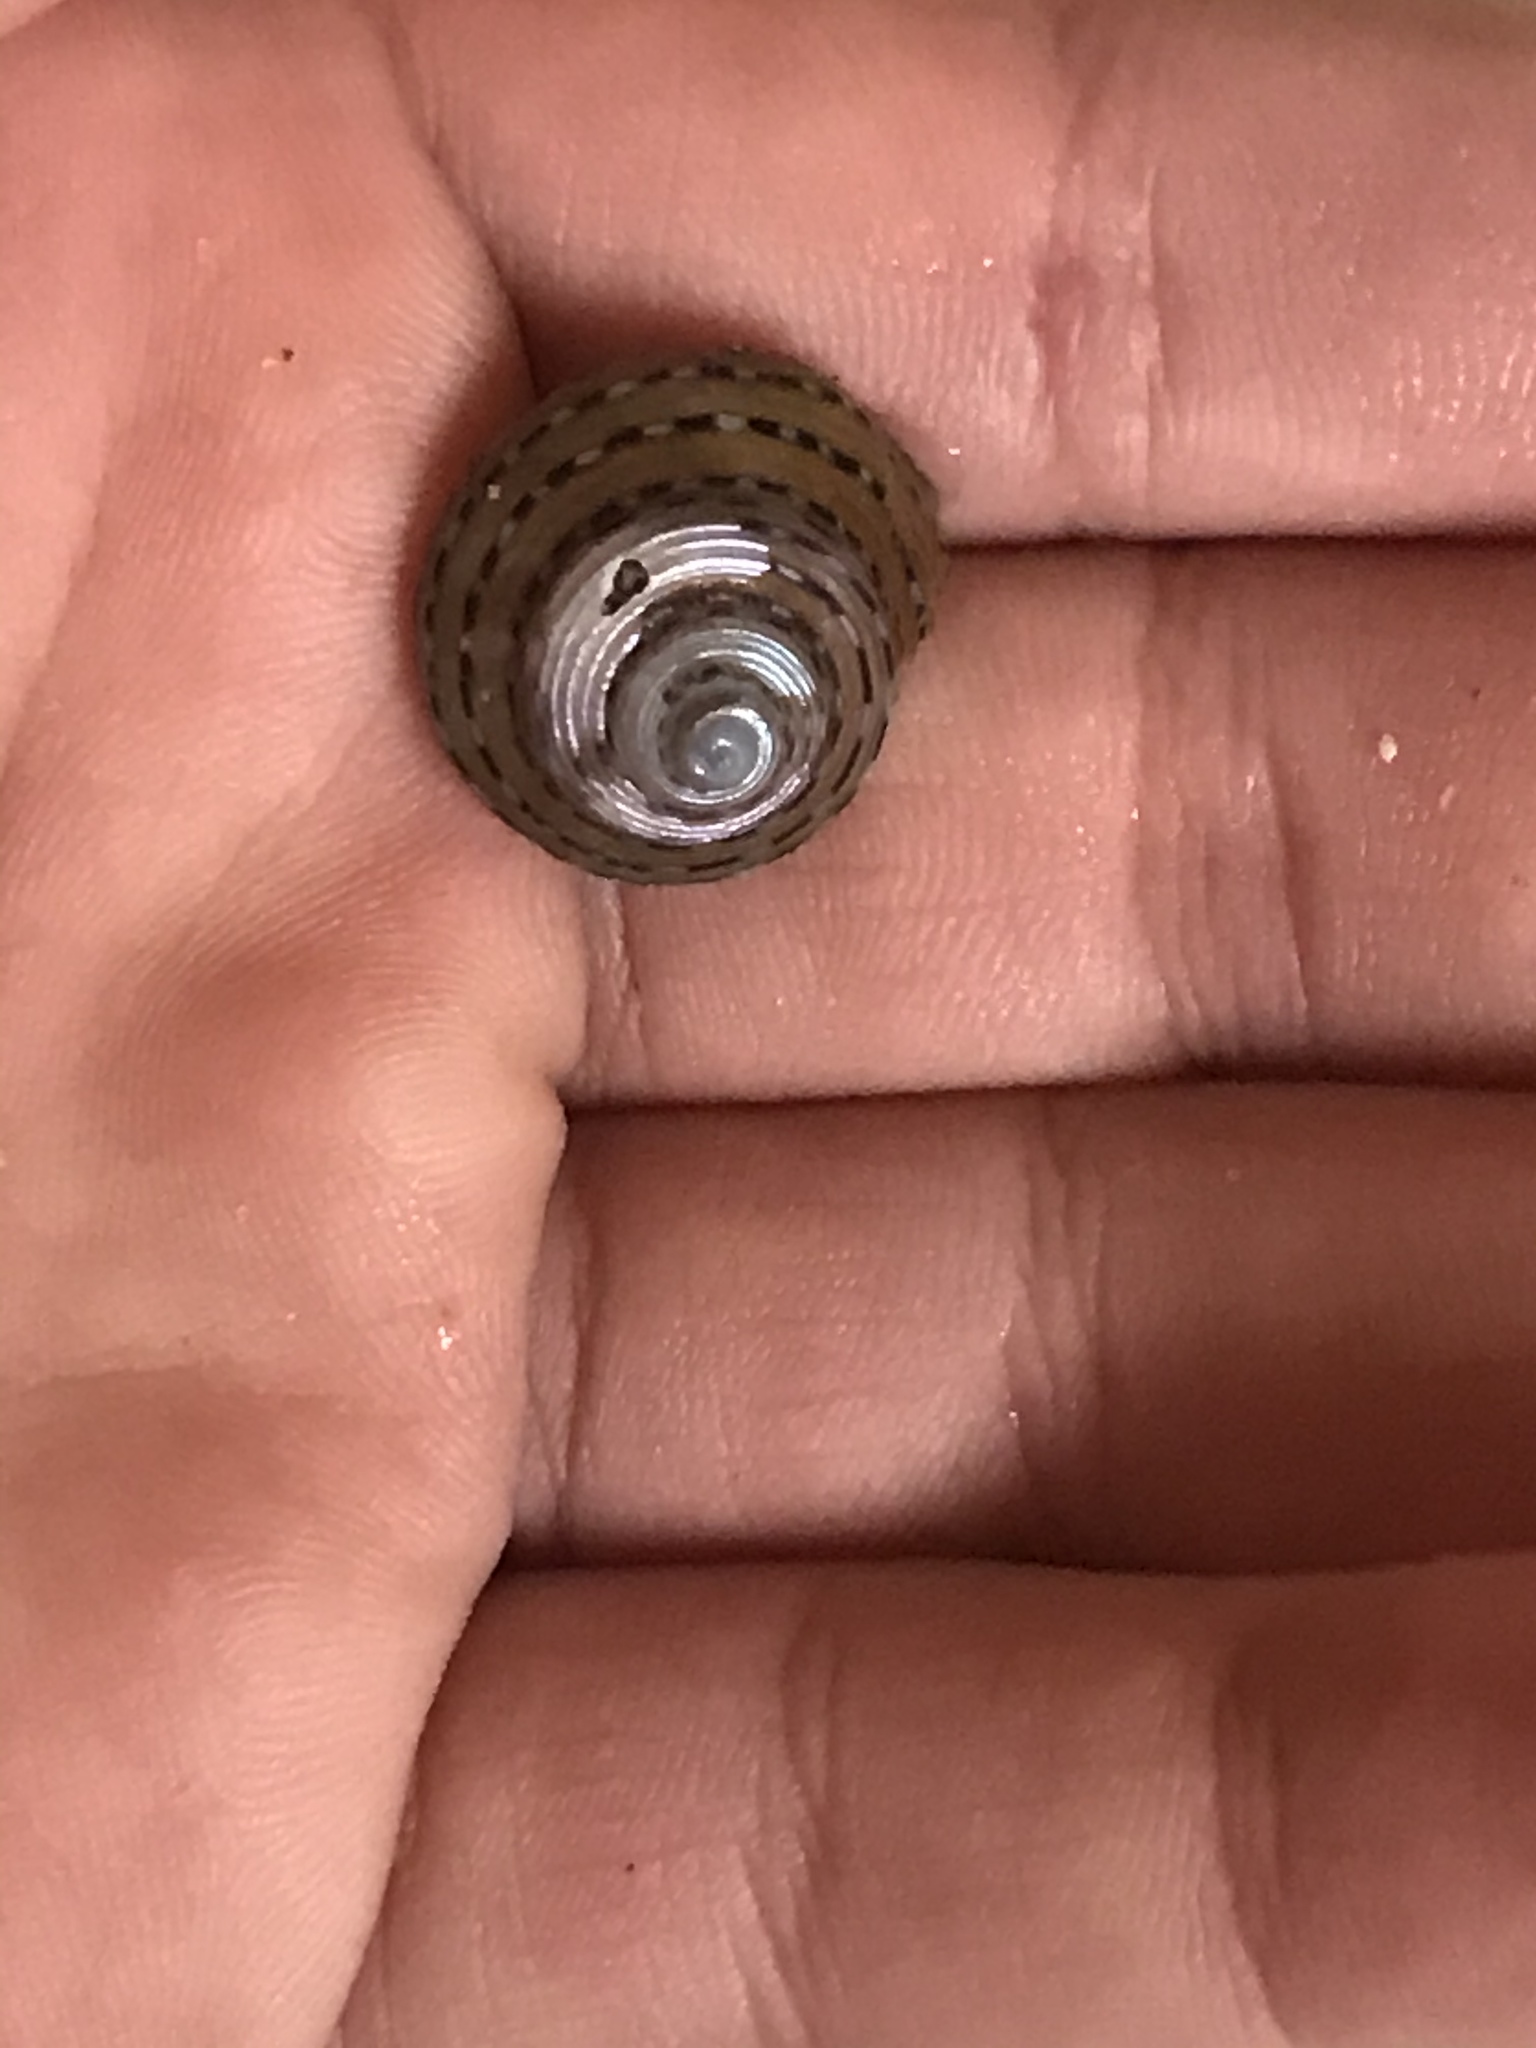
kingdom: Animalia
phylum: Mollusca
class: Gastropoda
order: Trochida
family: Calliostomatidae
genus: Calliostoma
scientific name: Calliostoma tricolor
